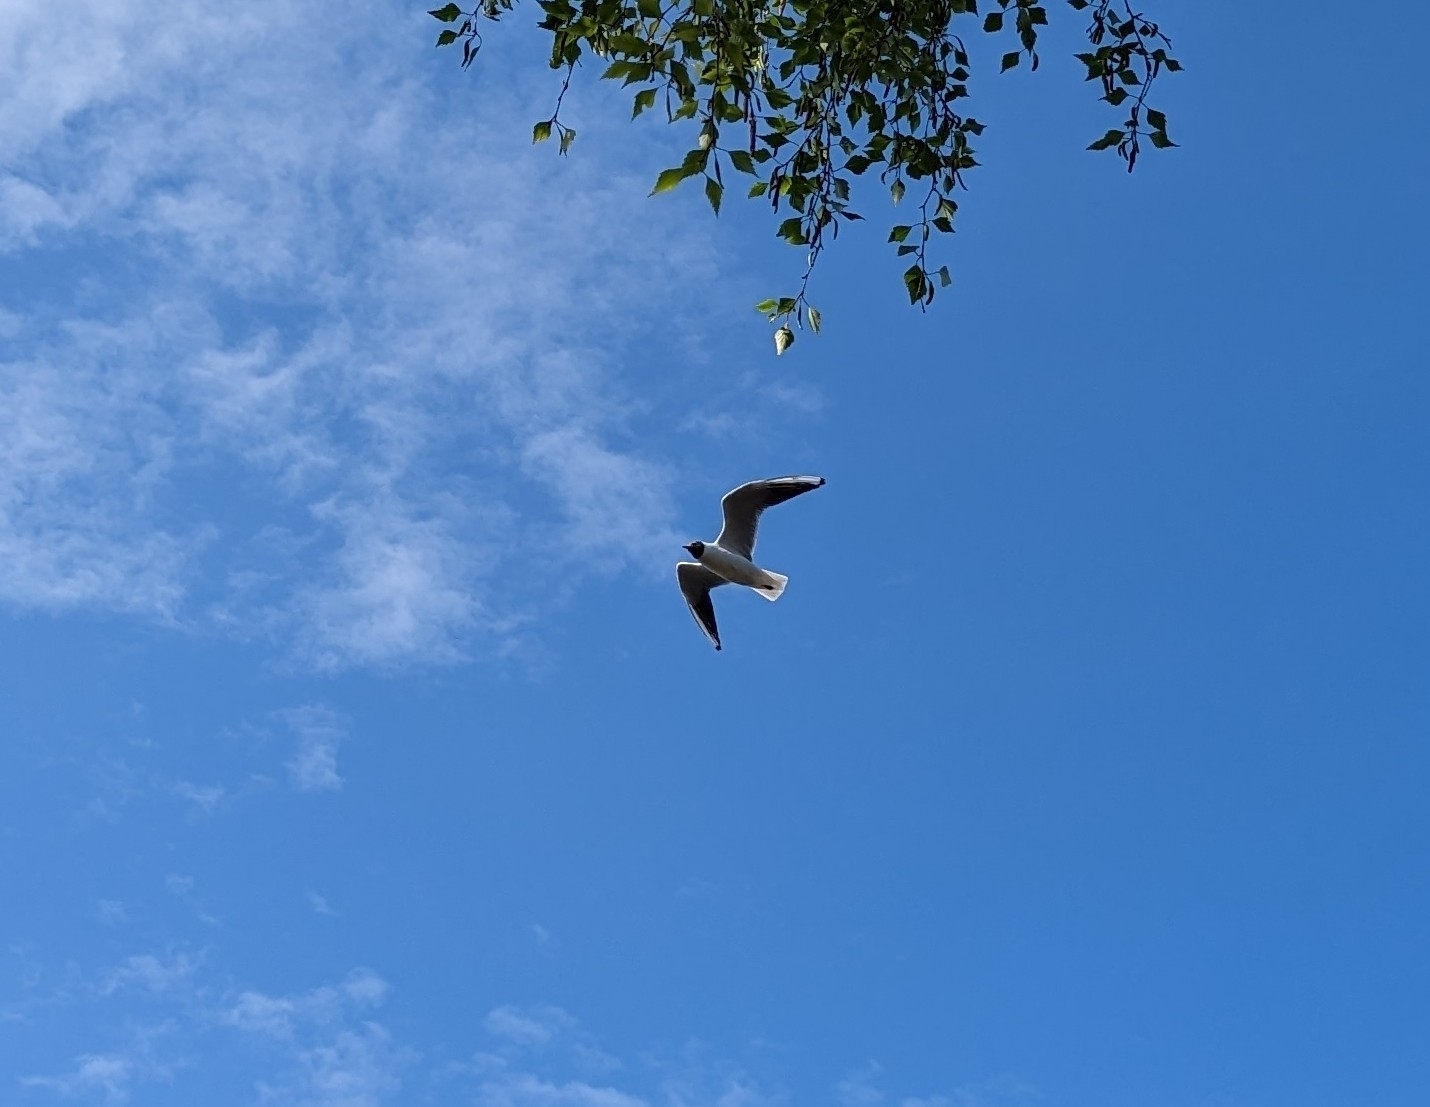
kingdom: Animalia
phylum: Chordata
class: Aves
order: Charadriiformes
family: Laridae
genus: Chroicocephalus
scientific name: Chroicocephalus ridibundus
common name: Black-headed gull
